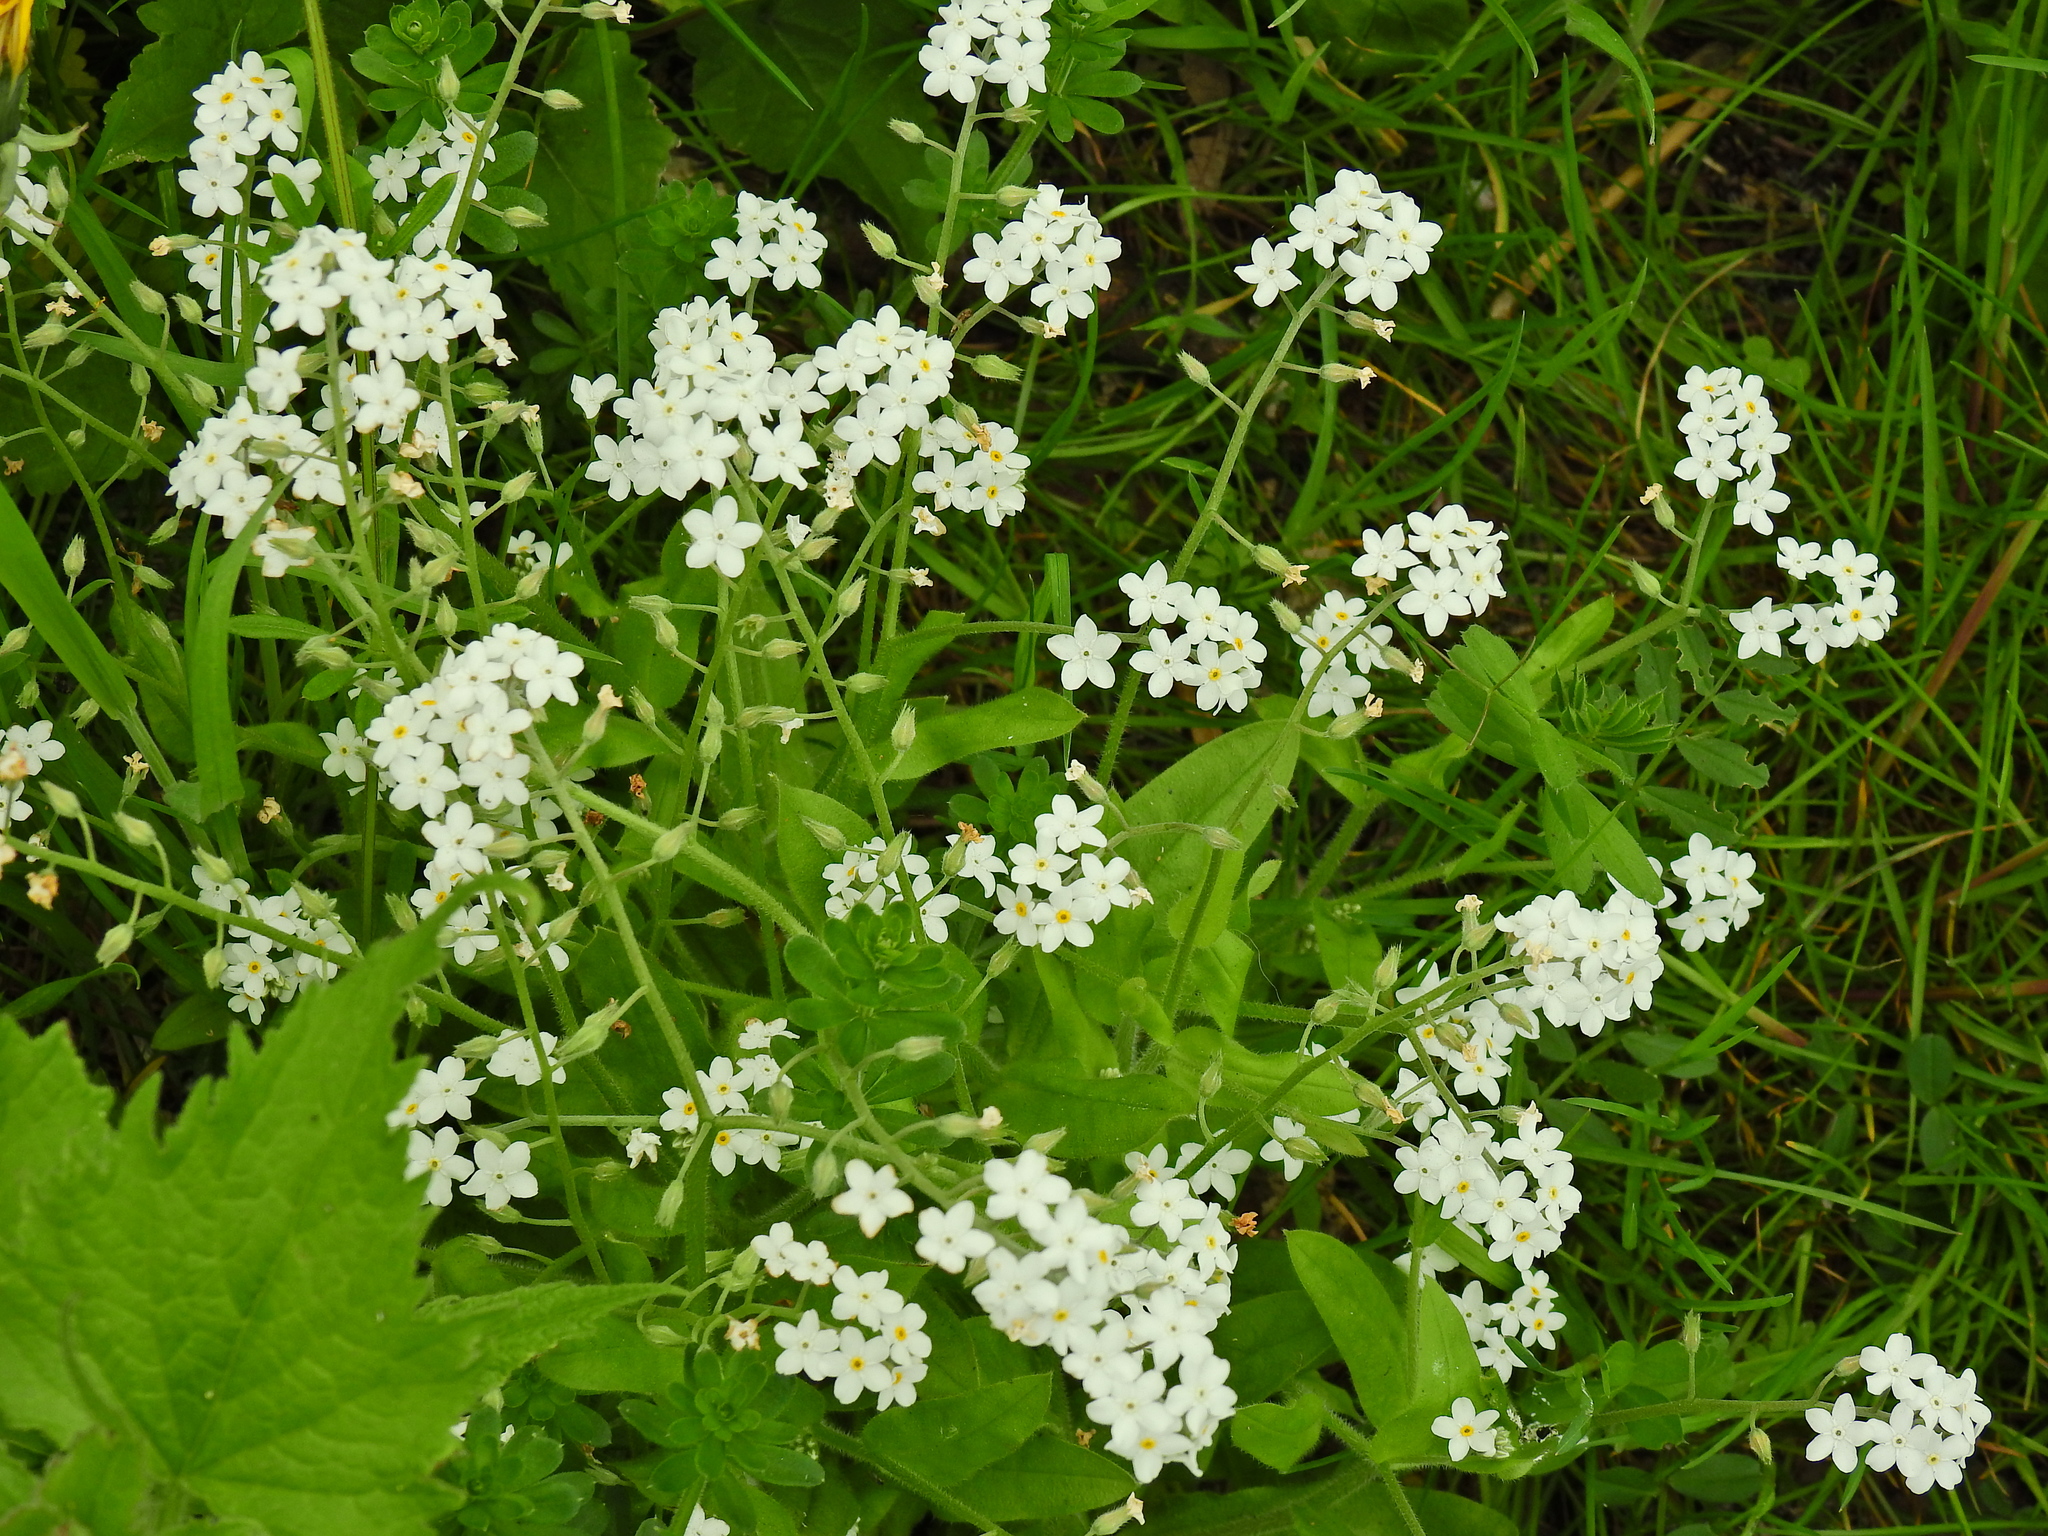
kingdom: Plantae
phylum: Tracheophyta
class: Magnoliopsida
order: Boraginales
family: Boraginaceae
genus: Myosotis
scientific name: Myosotis sylvatica
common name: Wood forget-me-not
